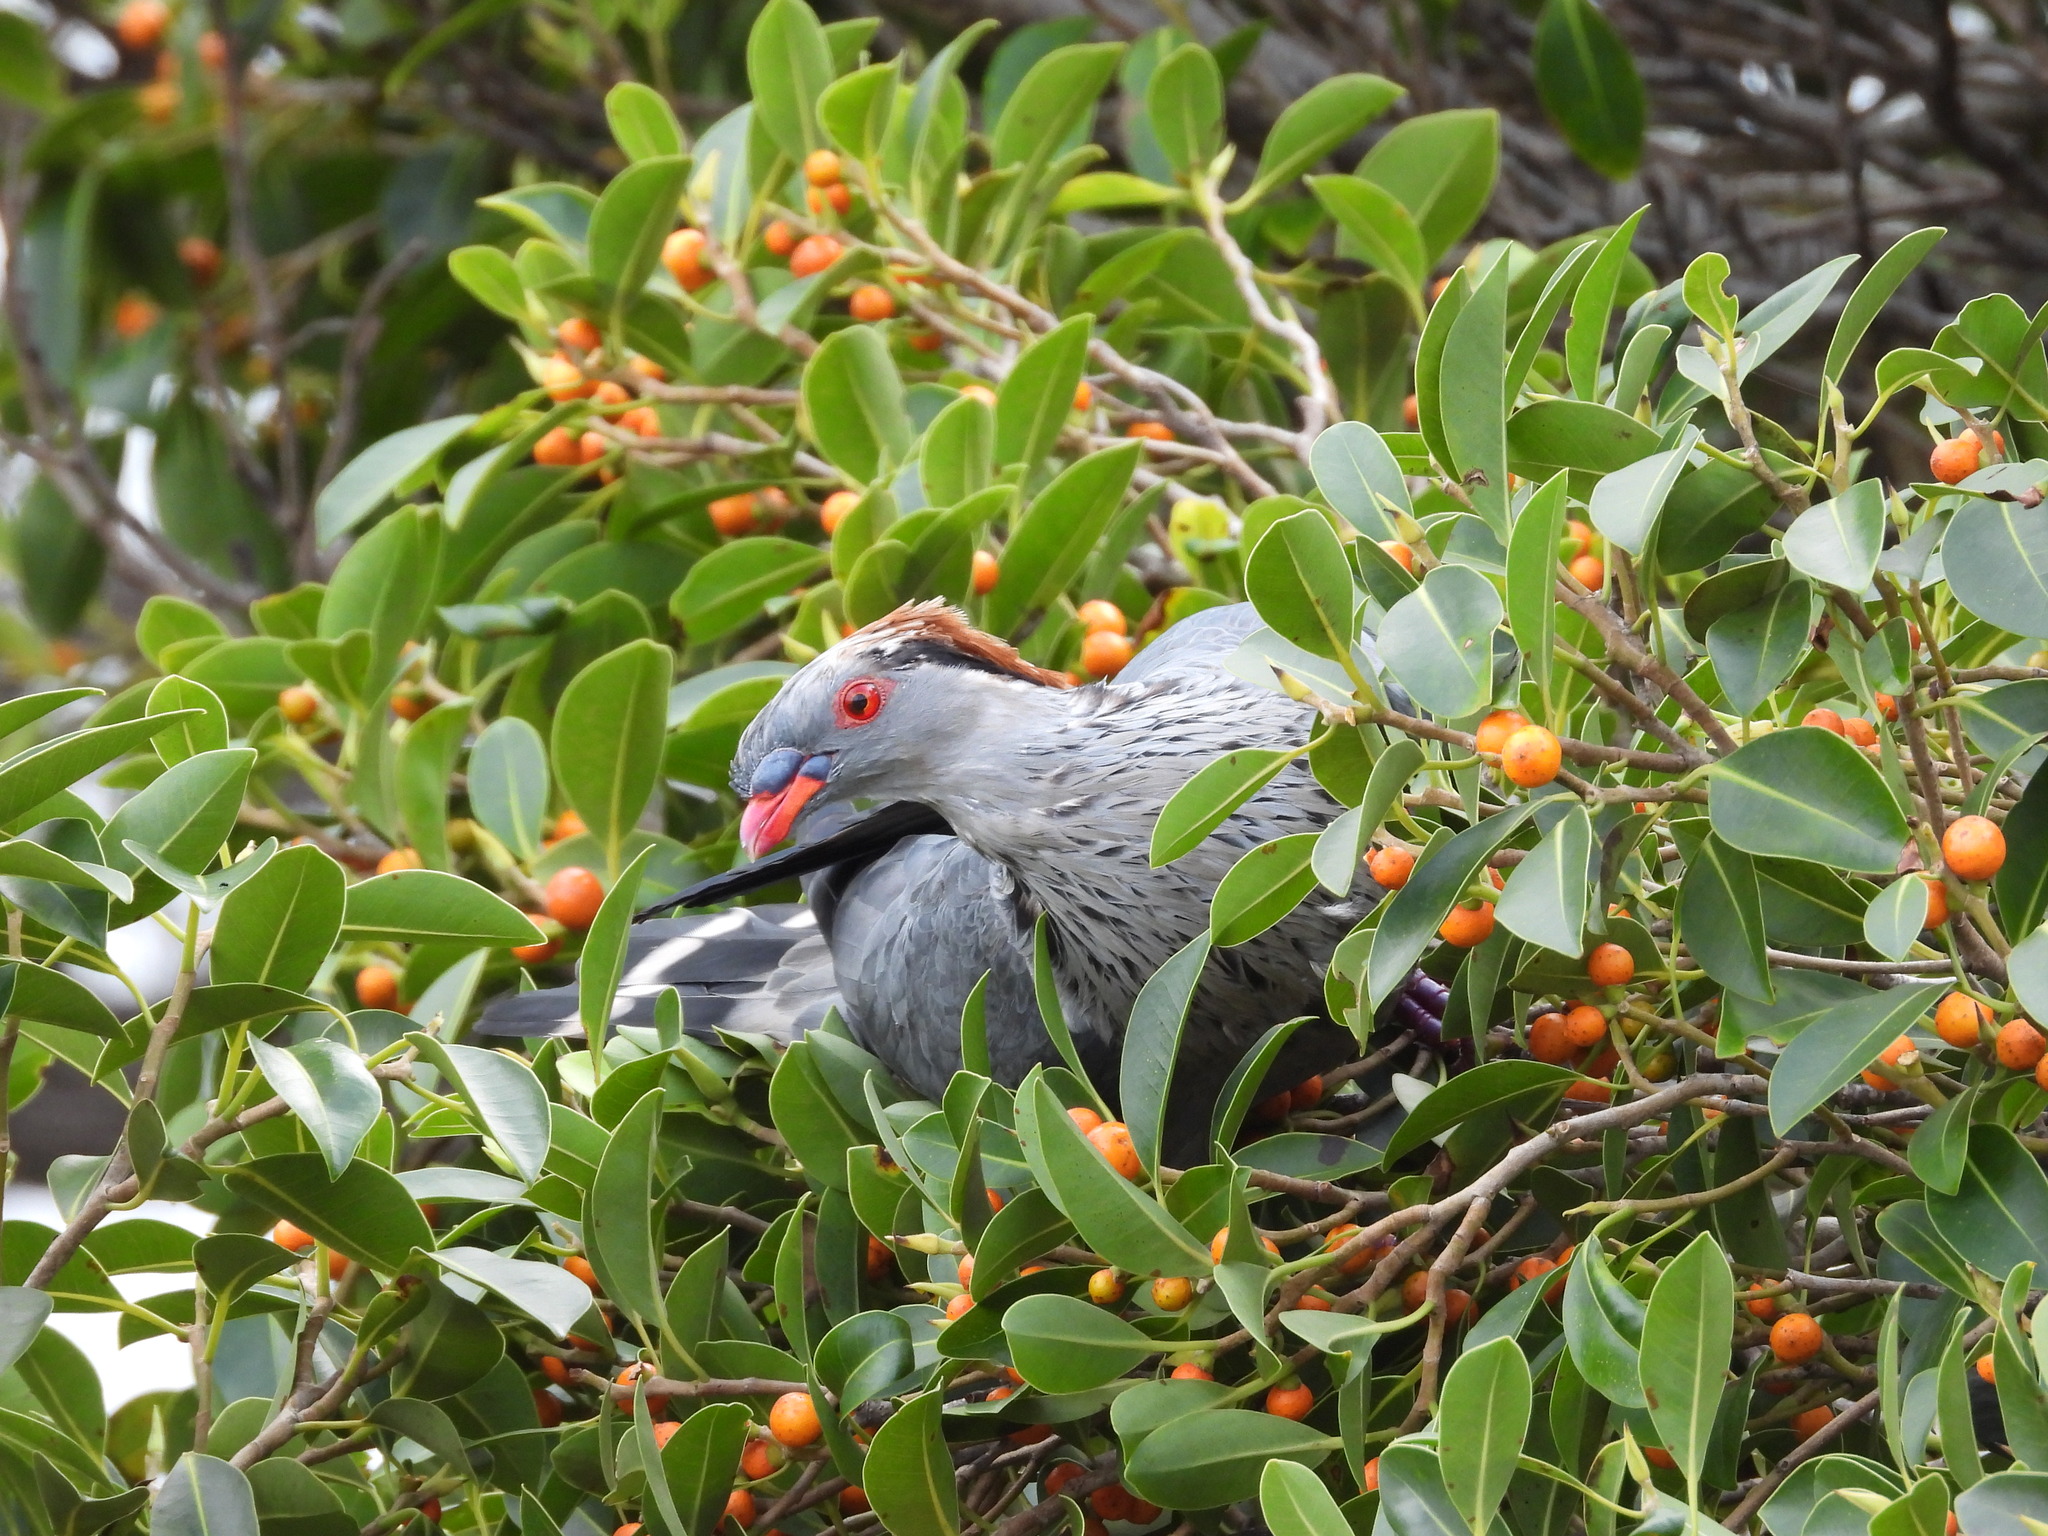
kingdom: Animalia
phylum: Chordata
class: Aves
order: Columbiformes
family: Columbidae
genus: Lopholaimus
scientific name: Lopholaimus antarcticus
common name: Topknot pigeon
